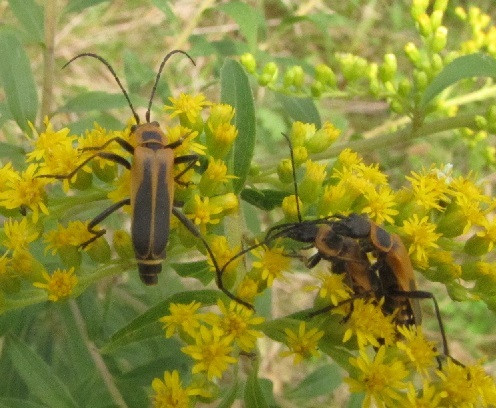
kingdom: Animalia
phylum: Arthropoda
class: Insecta
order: Coleoptera
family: Cantharidae
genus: Chauliognathus
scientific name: Chauliognathus pensylvanicus
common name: Goldenrod soldier beetle
